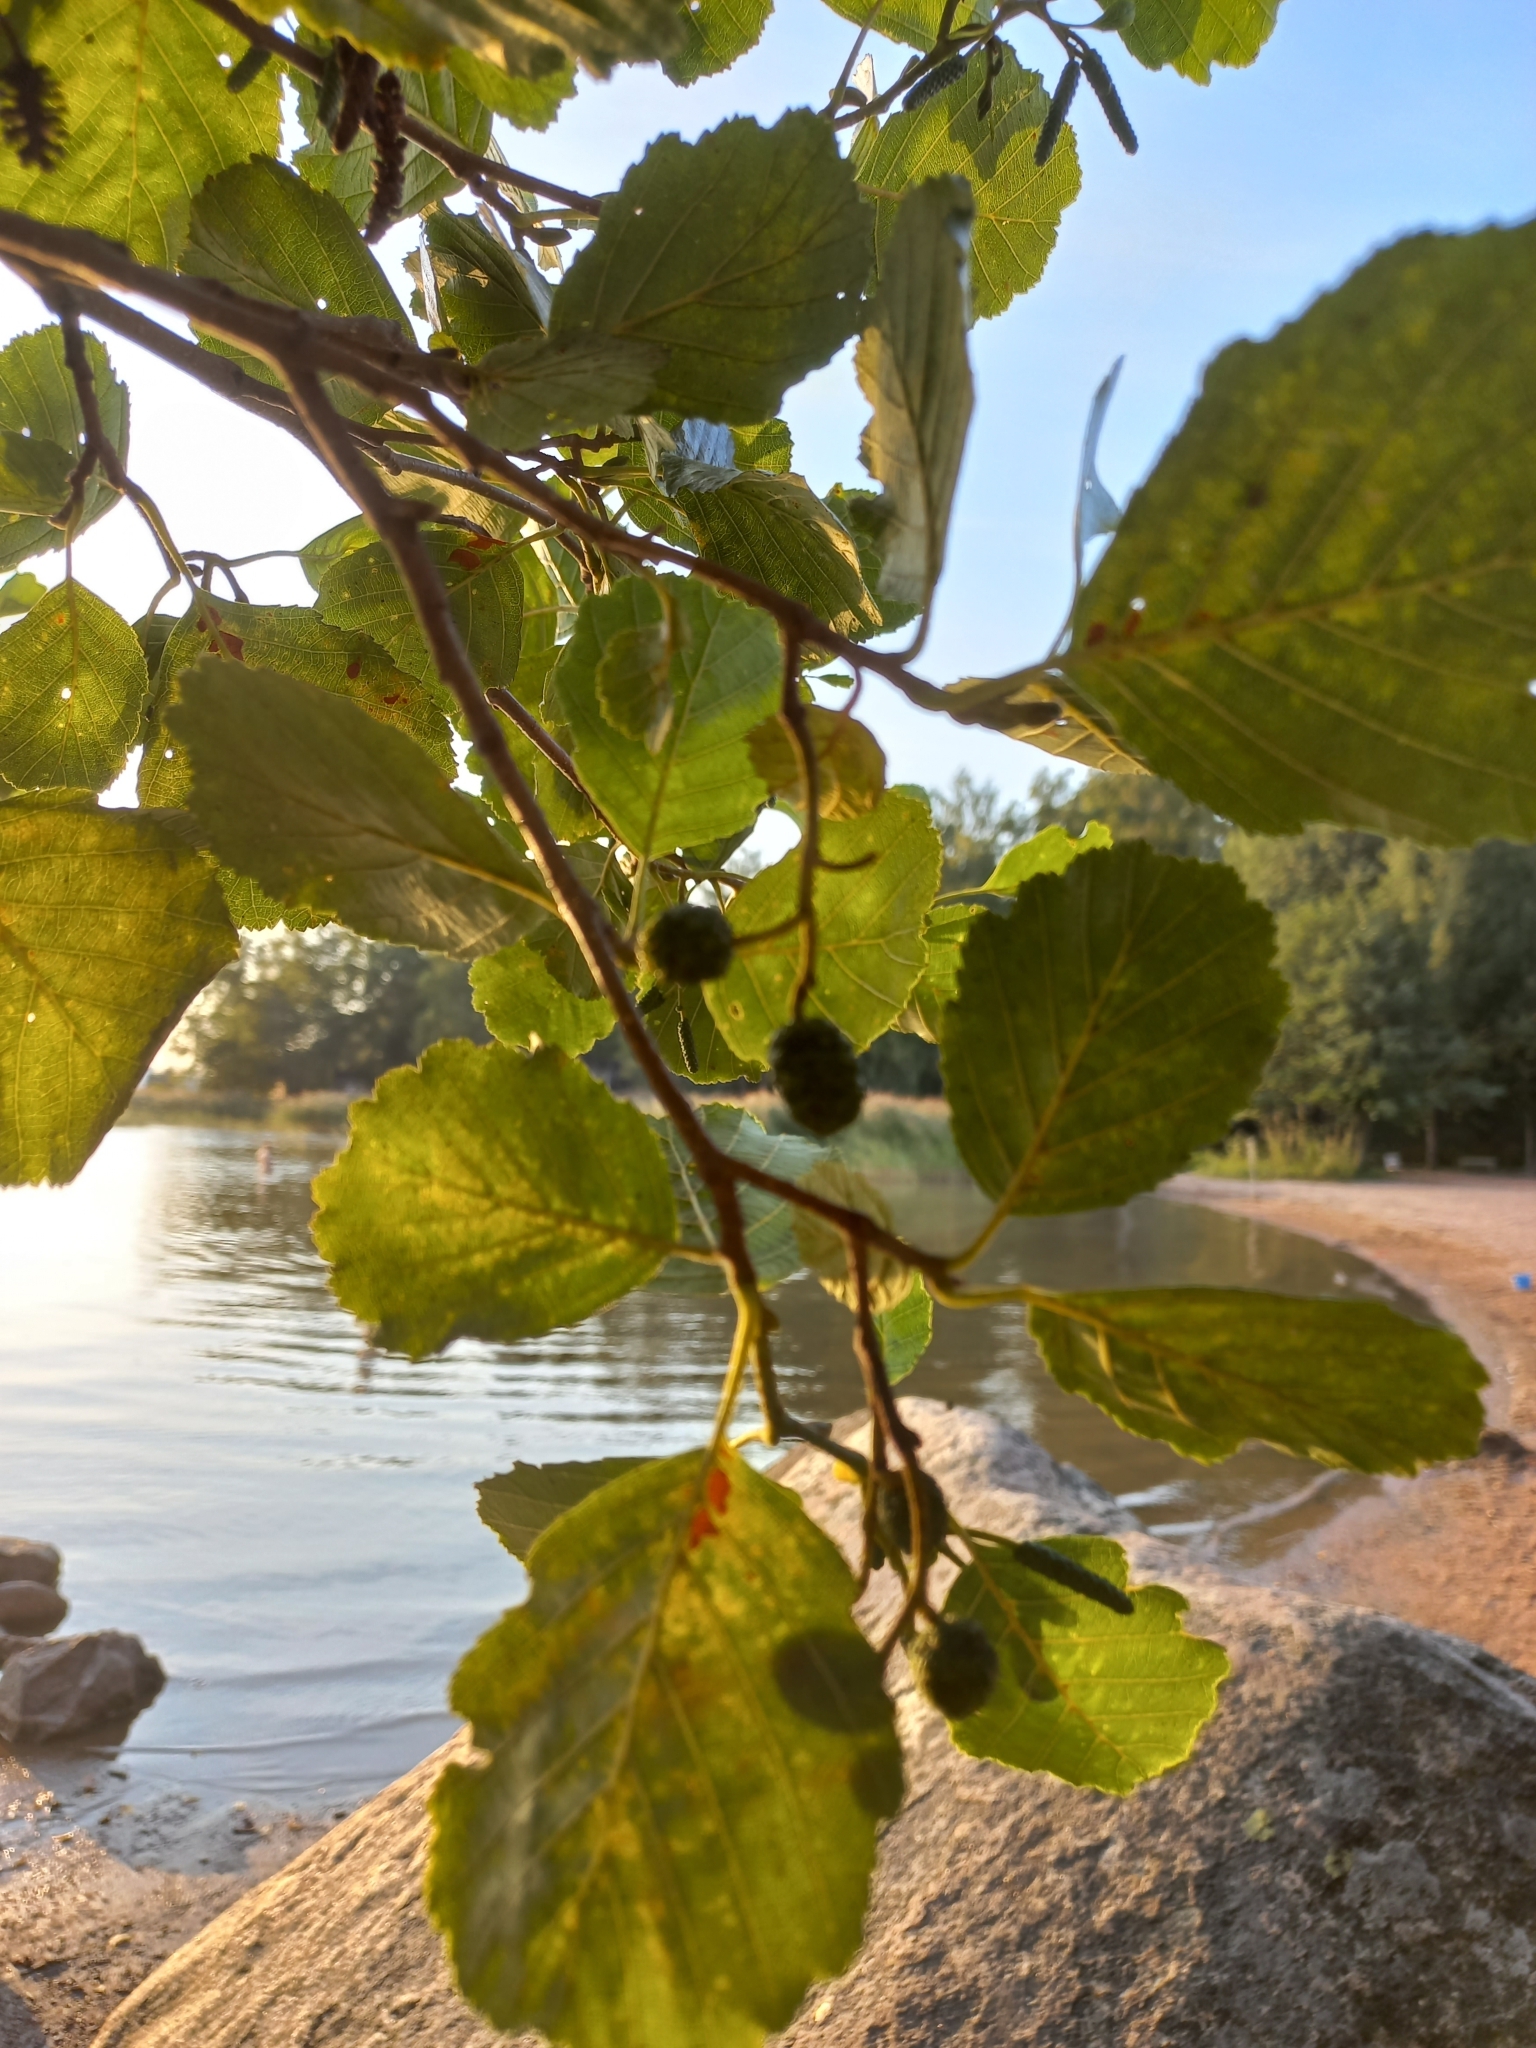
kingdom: Plantae
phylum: Tracheophyta
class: Magnoliopsida
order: Fagales
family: Betulaceae
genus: Alnus
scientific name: Alnus glutinosa
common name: Black alder
